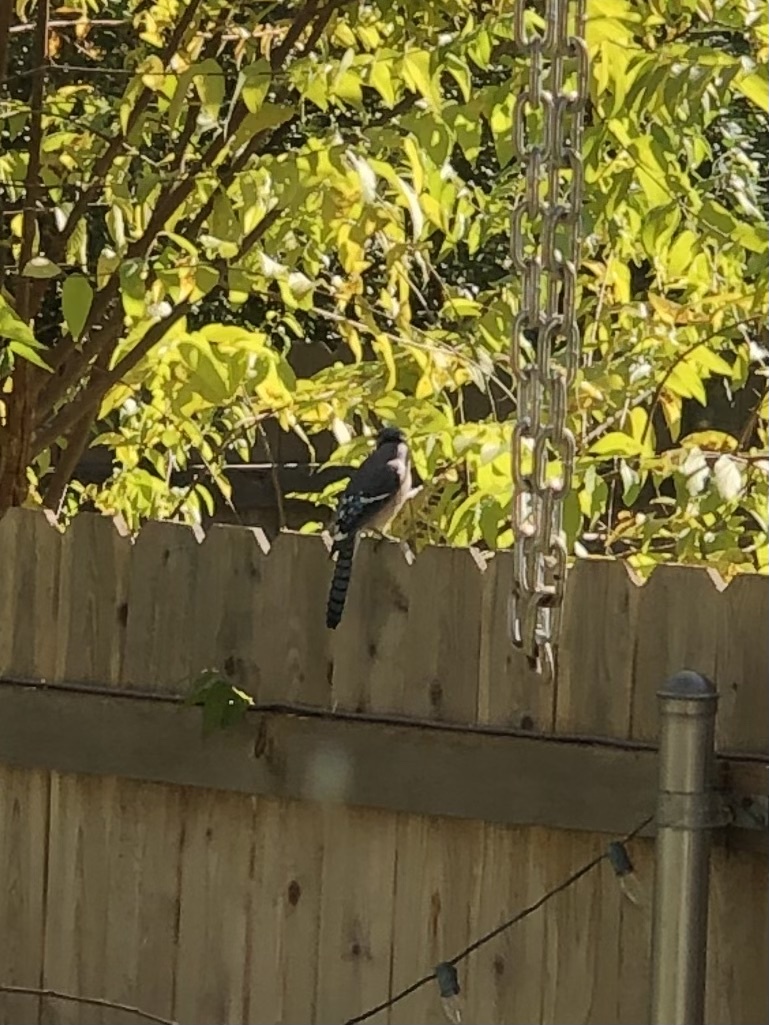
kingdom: Animalia
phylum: Chordata
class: Aves
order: Passeriformes
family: Corvidae
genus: Cyanocitta
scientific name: Cyanocitta cristata
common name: Blue jay
